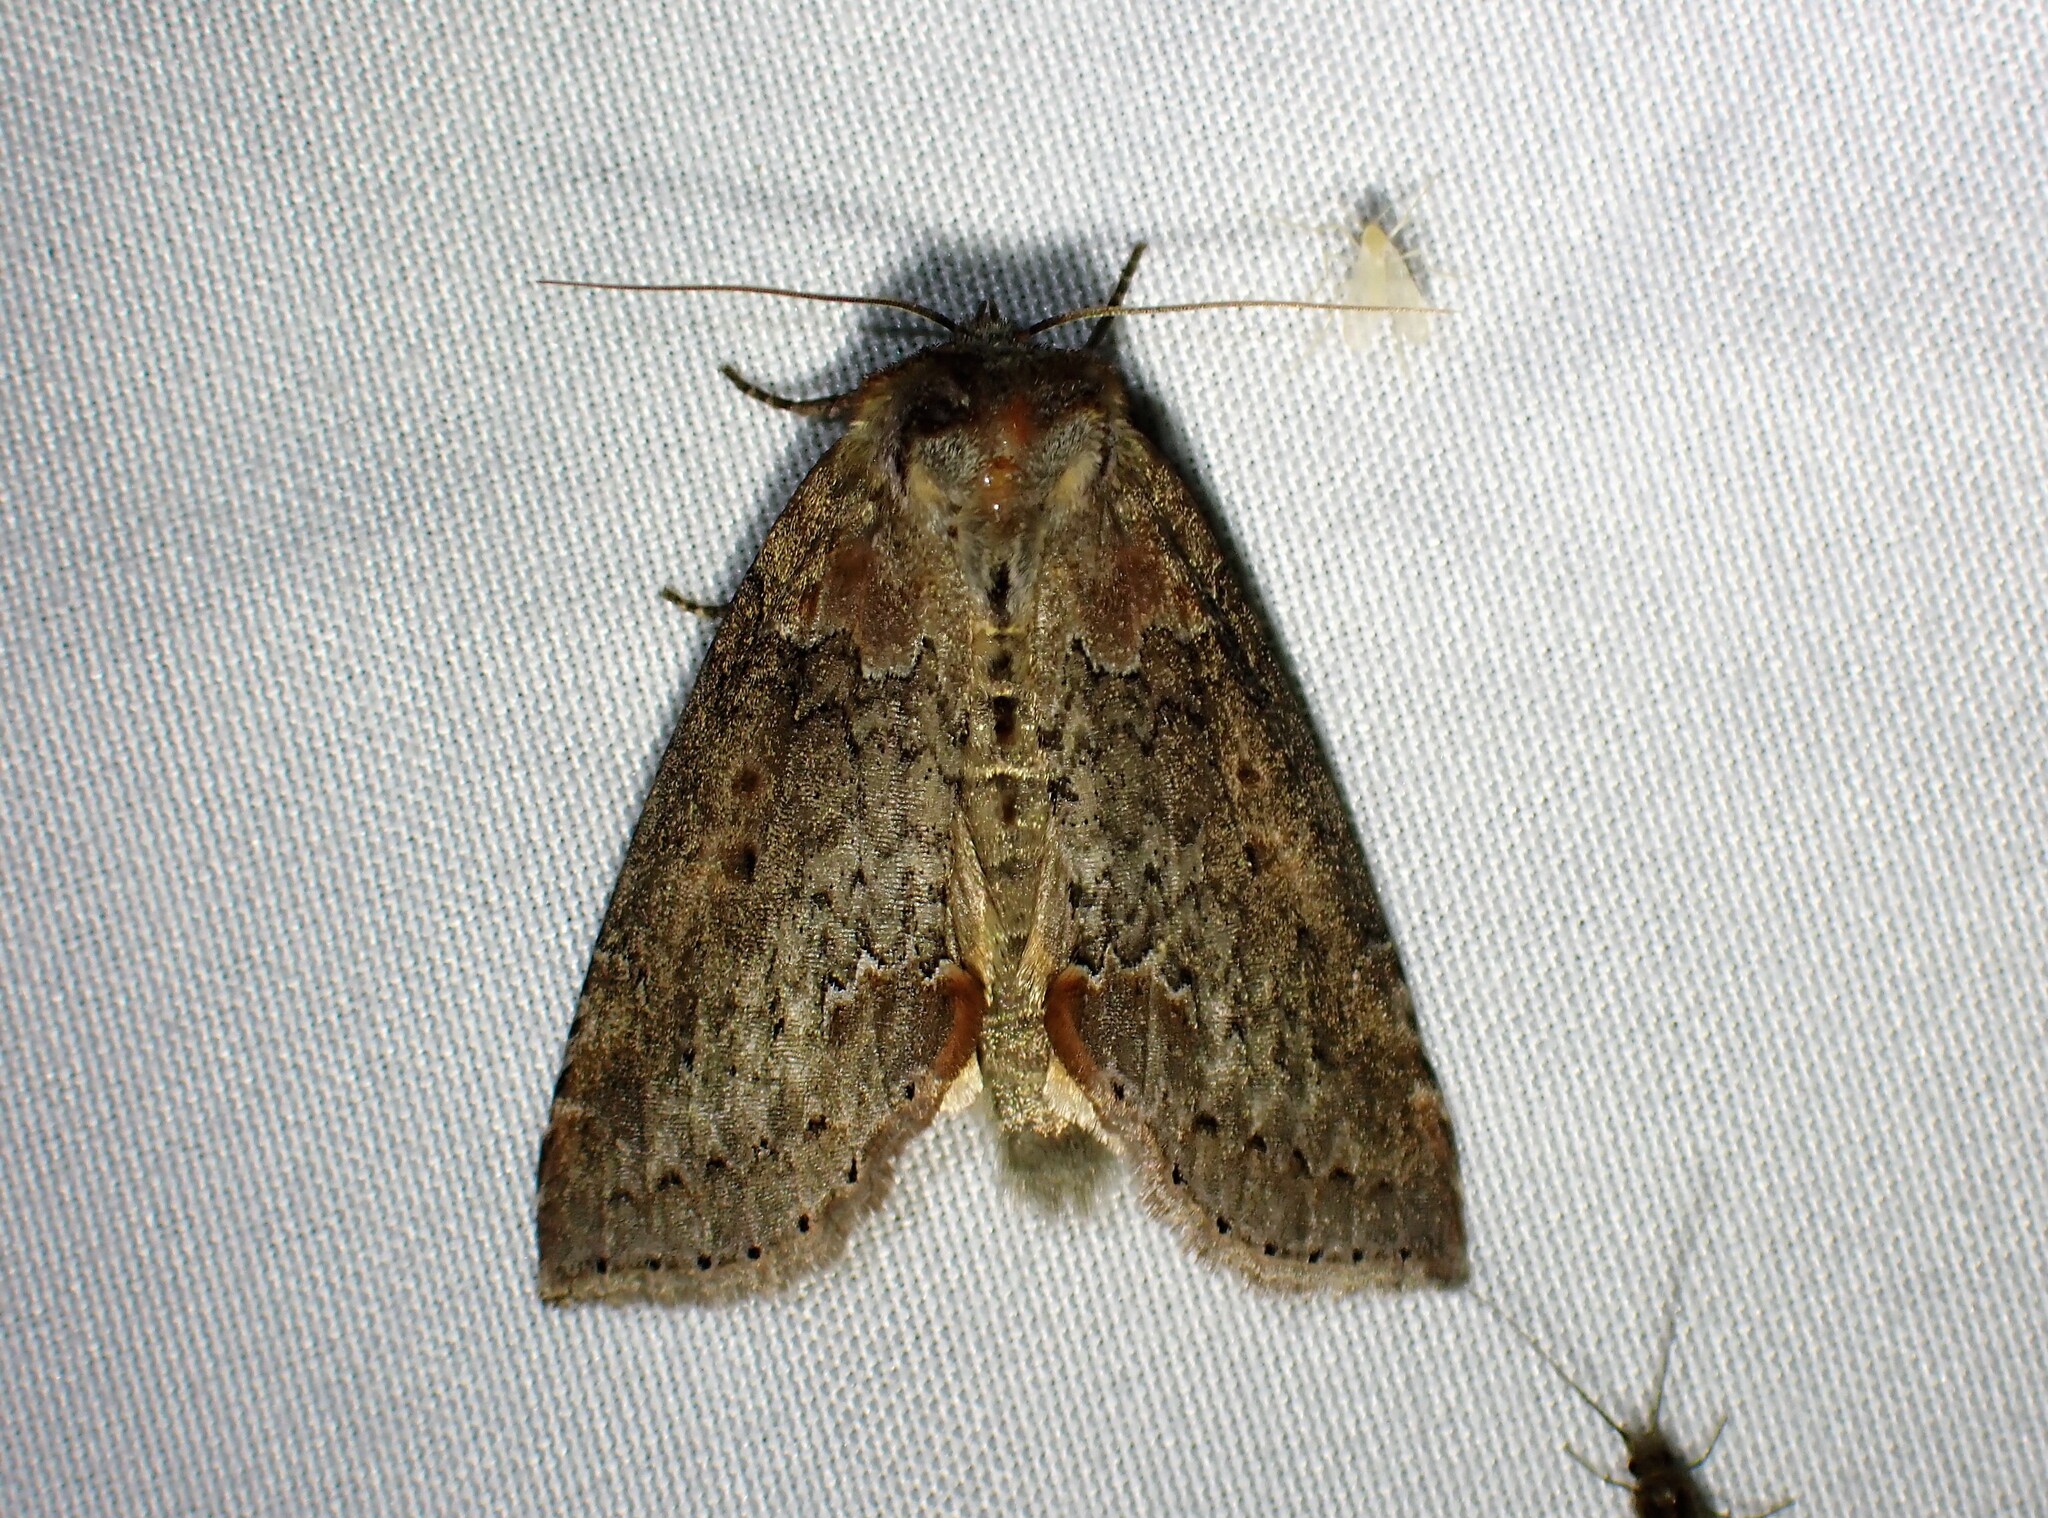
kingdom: Animalia
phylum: Arthropoda
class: Insecta
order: Lepidoptera
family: Drepanidae
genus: Pseudothyatira
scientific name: Pseudothyatira cymatophoroides
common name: Tufted thyatirid moth
